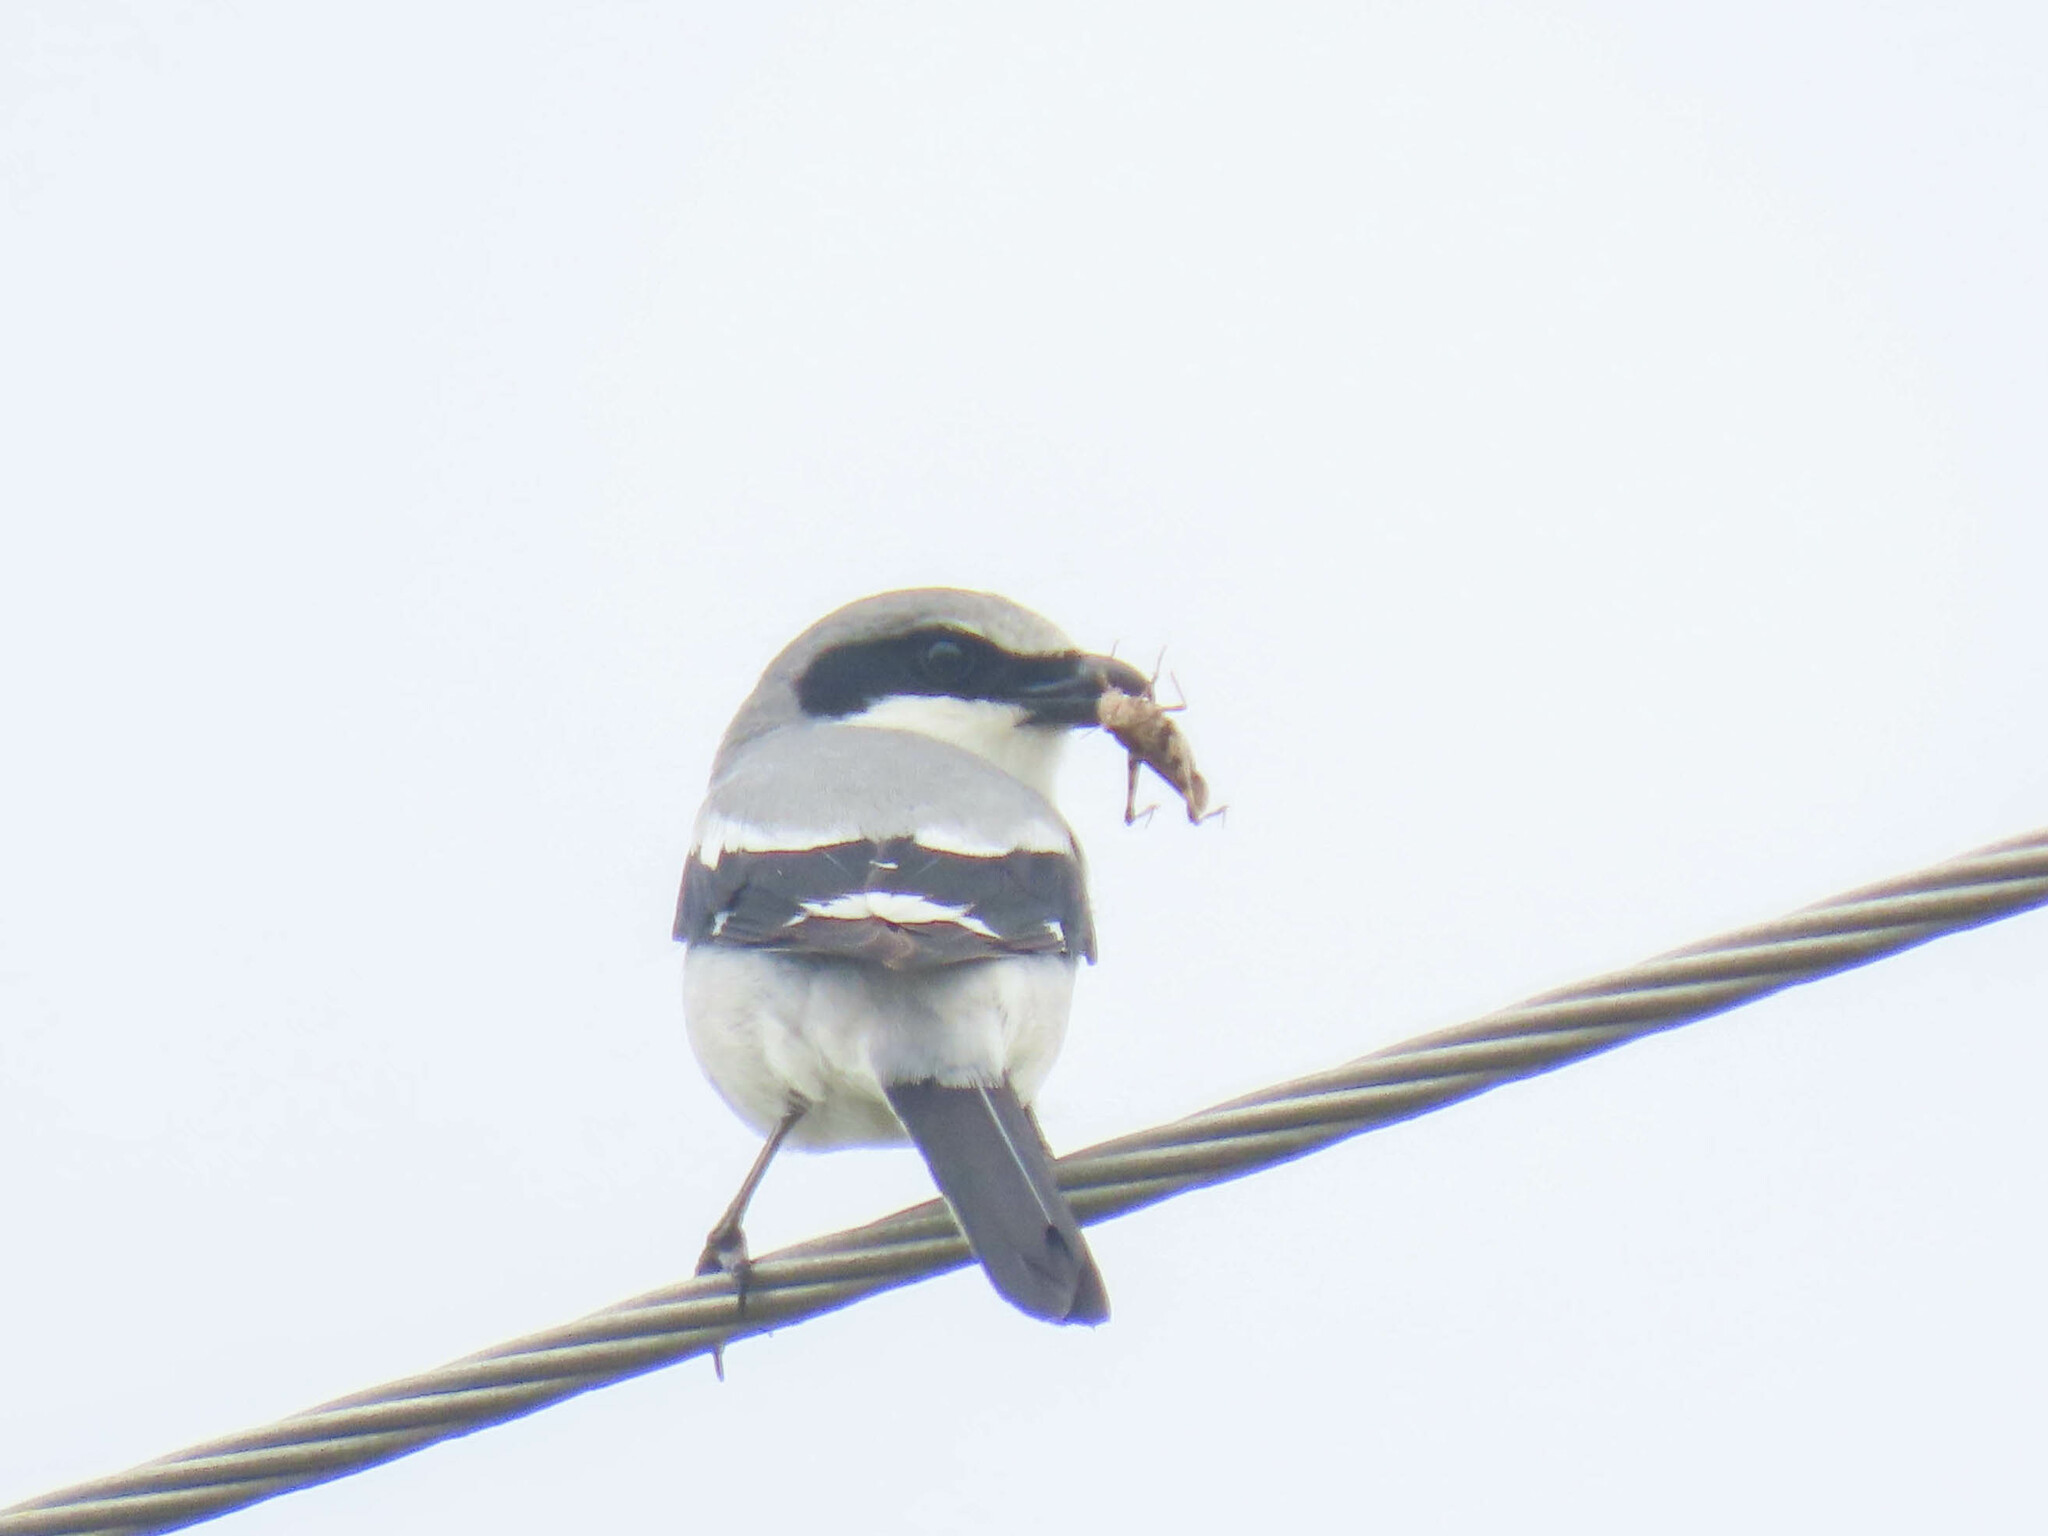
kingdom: Animalia
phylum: Arthropoda
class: Insecta
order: Orthoptera
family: Acrididae
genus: Chortophaga
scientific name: Chortophaga australior
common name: Southern green-striped grasshopper
